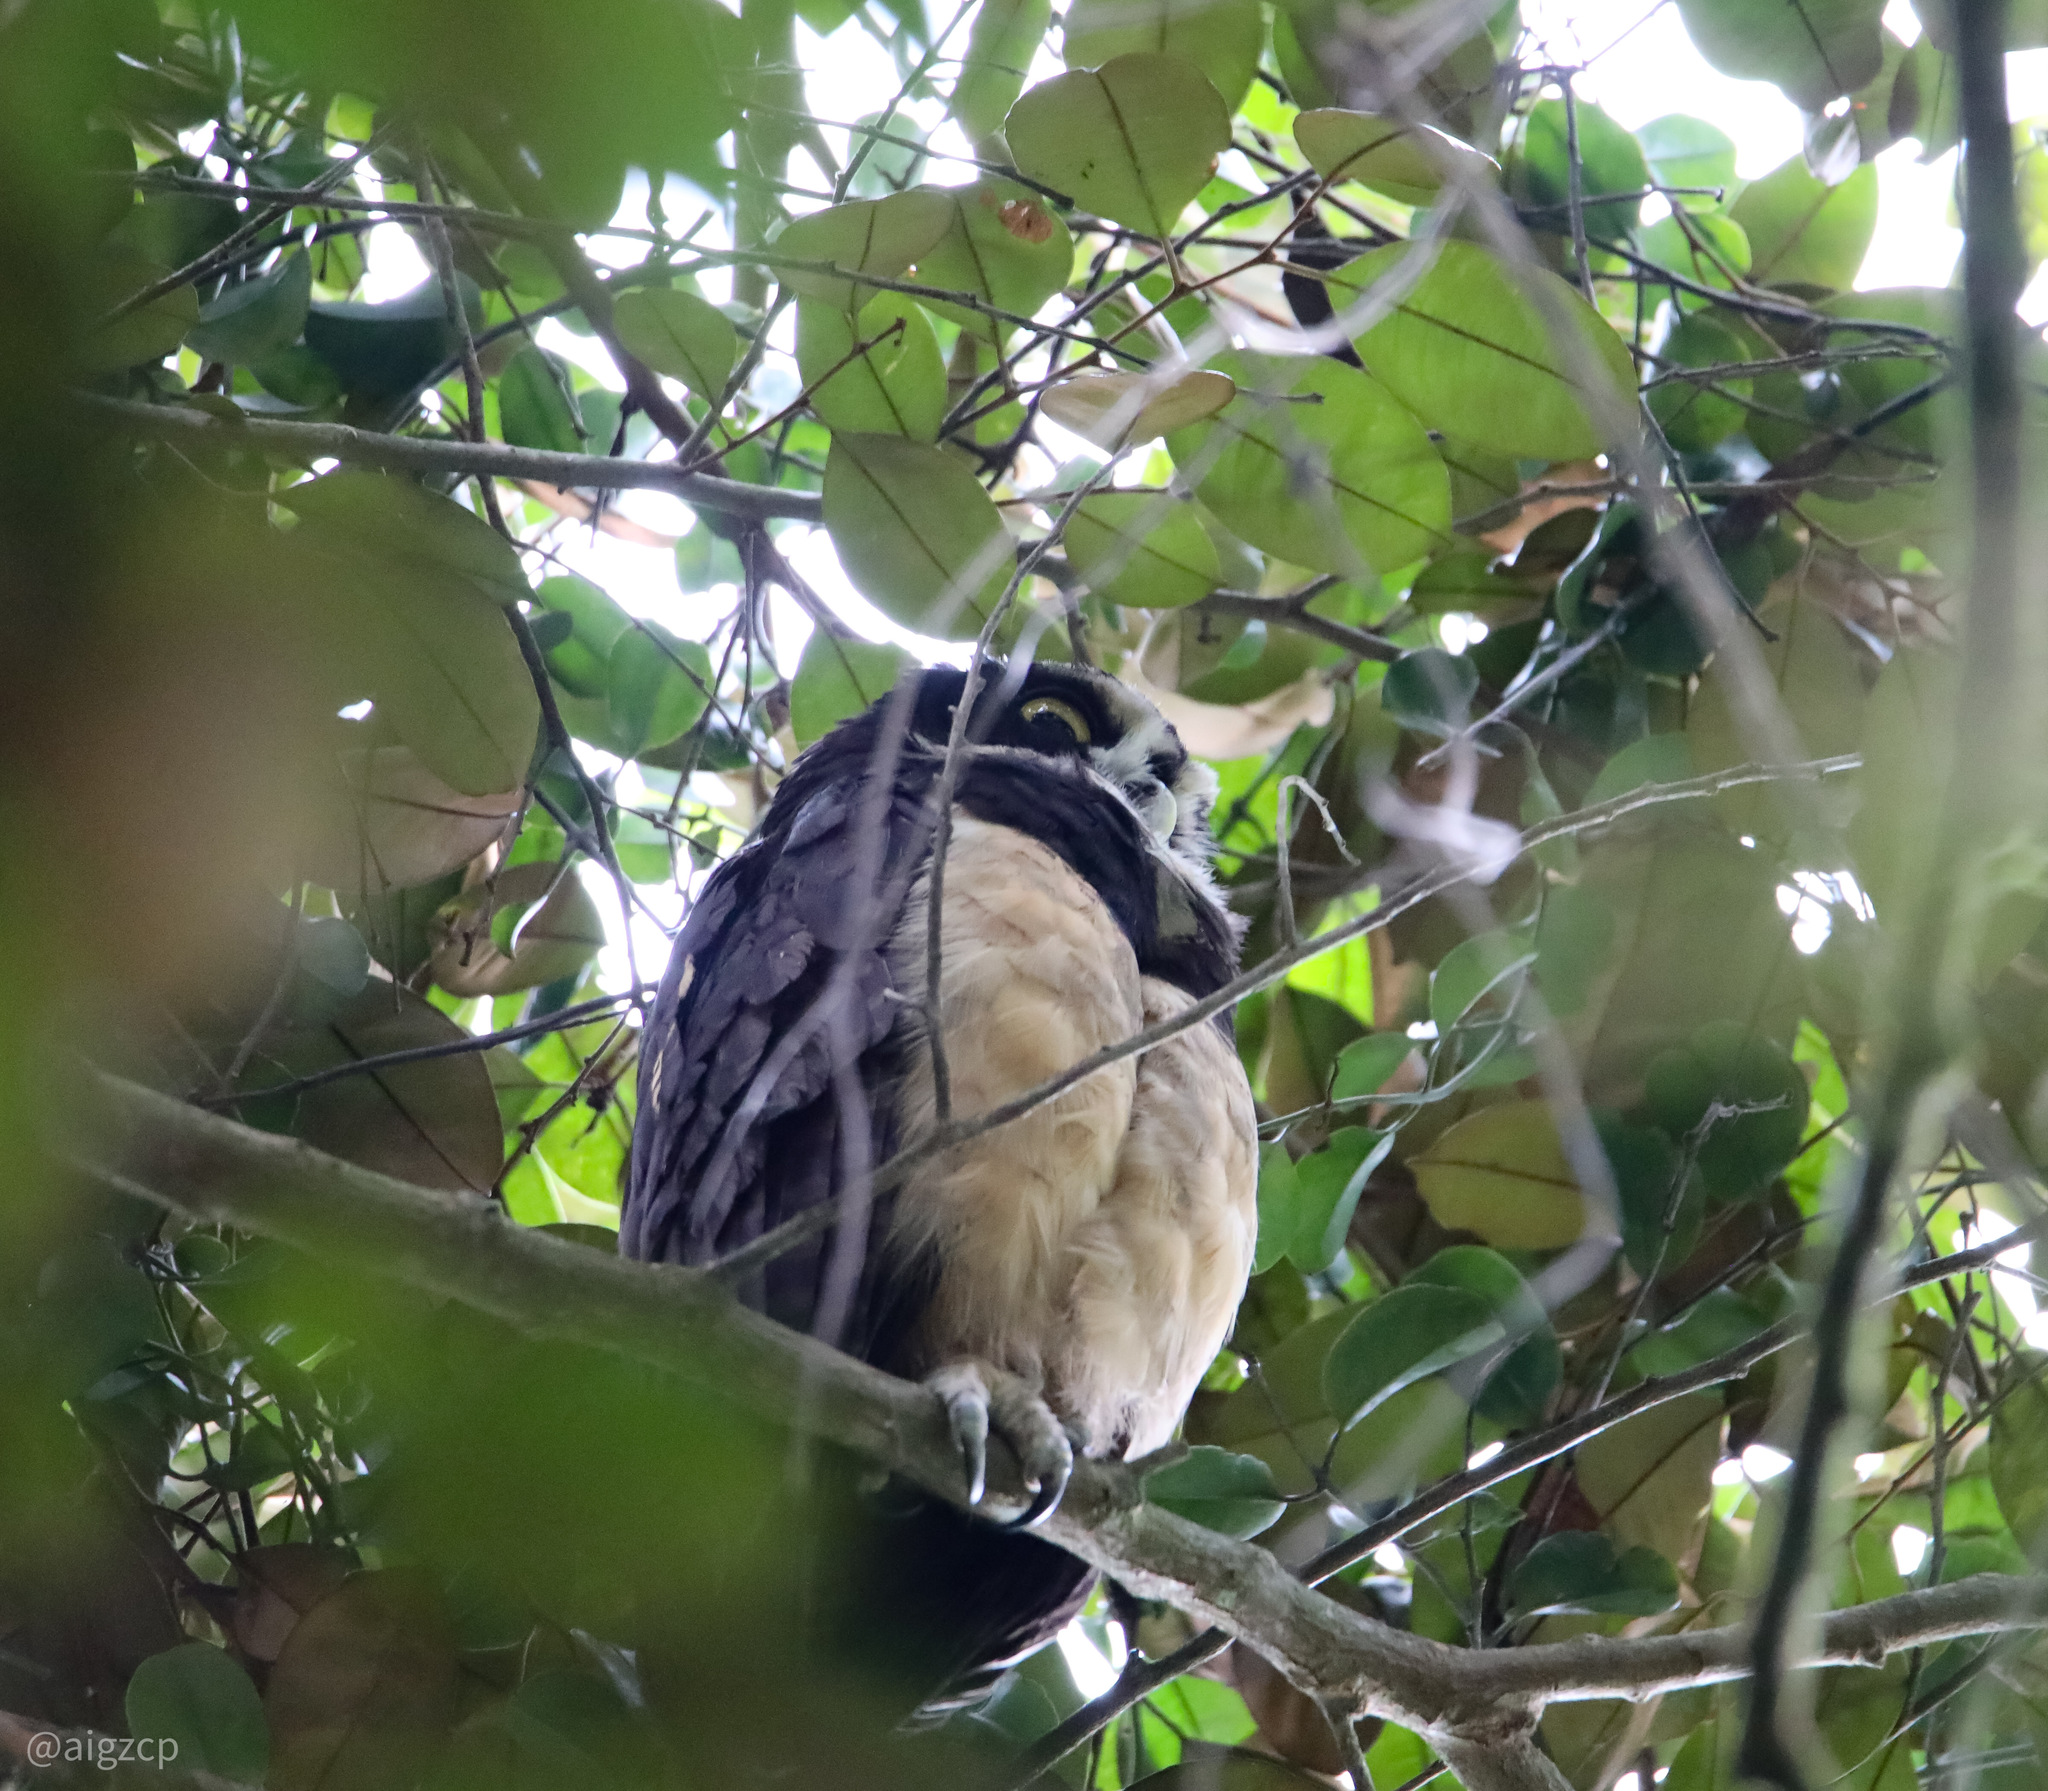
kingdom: Animalia
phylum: Chordata
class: Aves
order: Strigiformes
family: Strigidae
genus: Pulsatrix
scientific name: Pulsatrix perspicillata
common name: Spectacled owl
